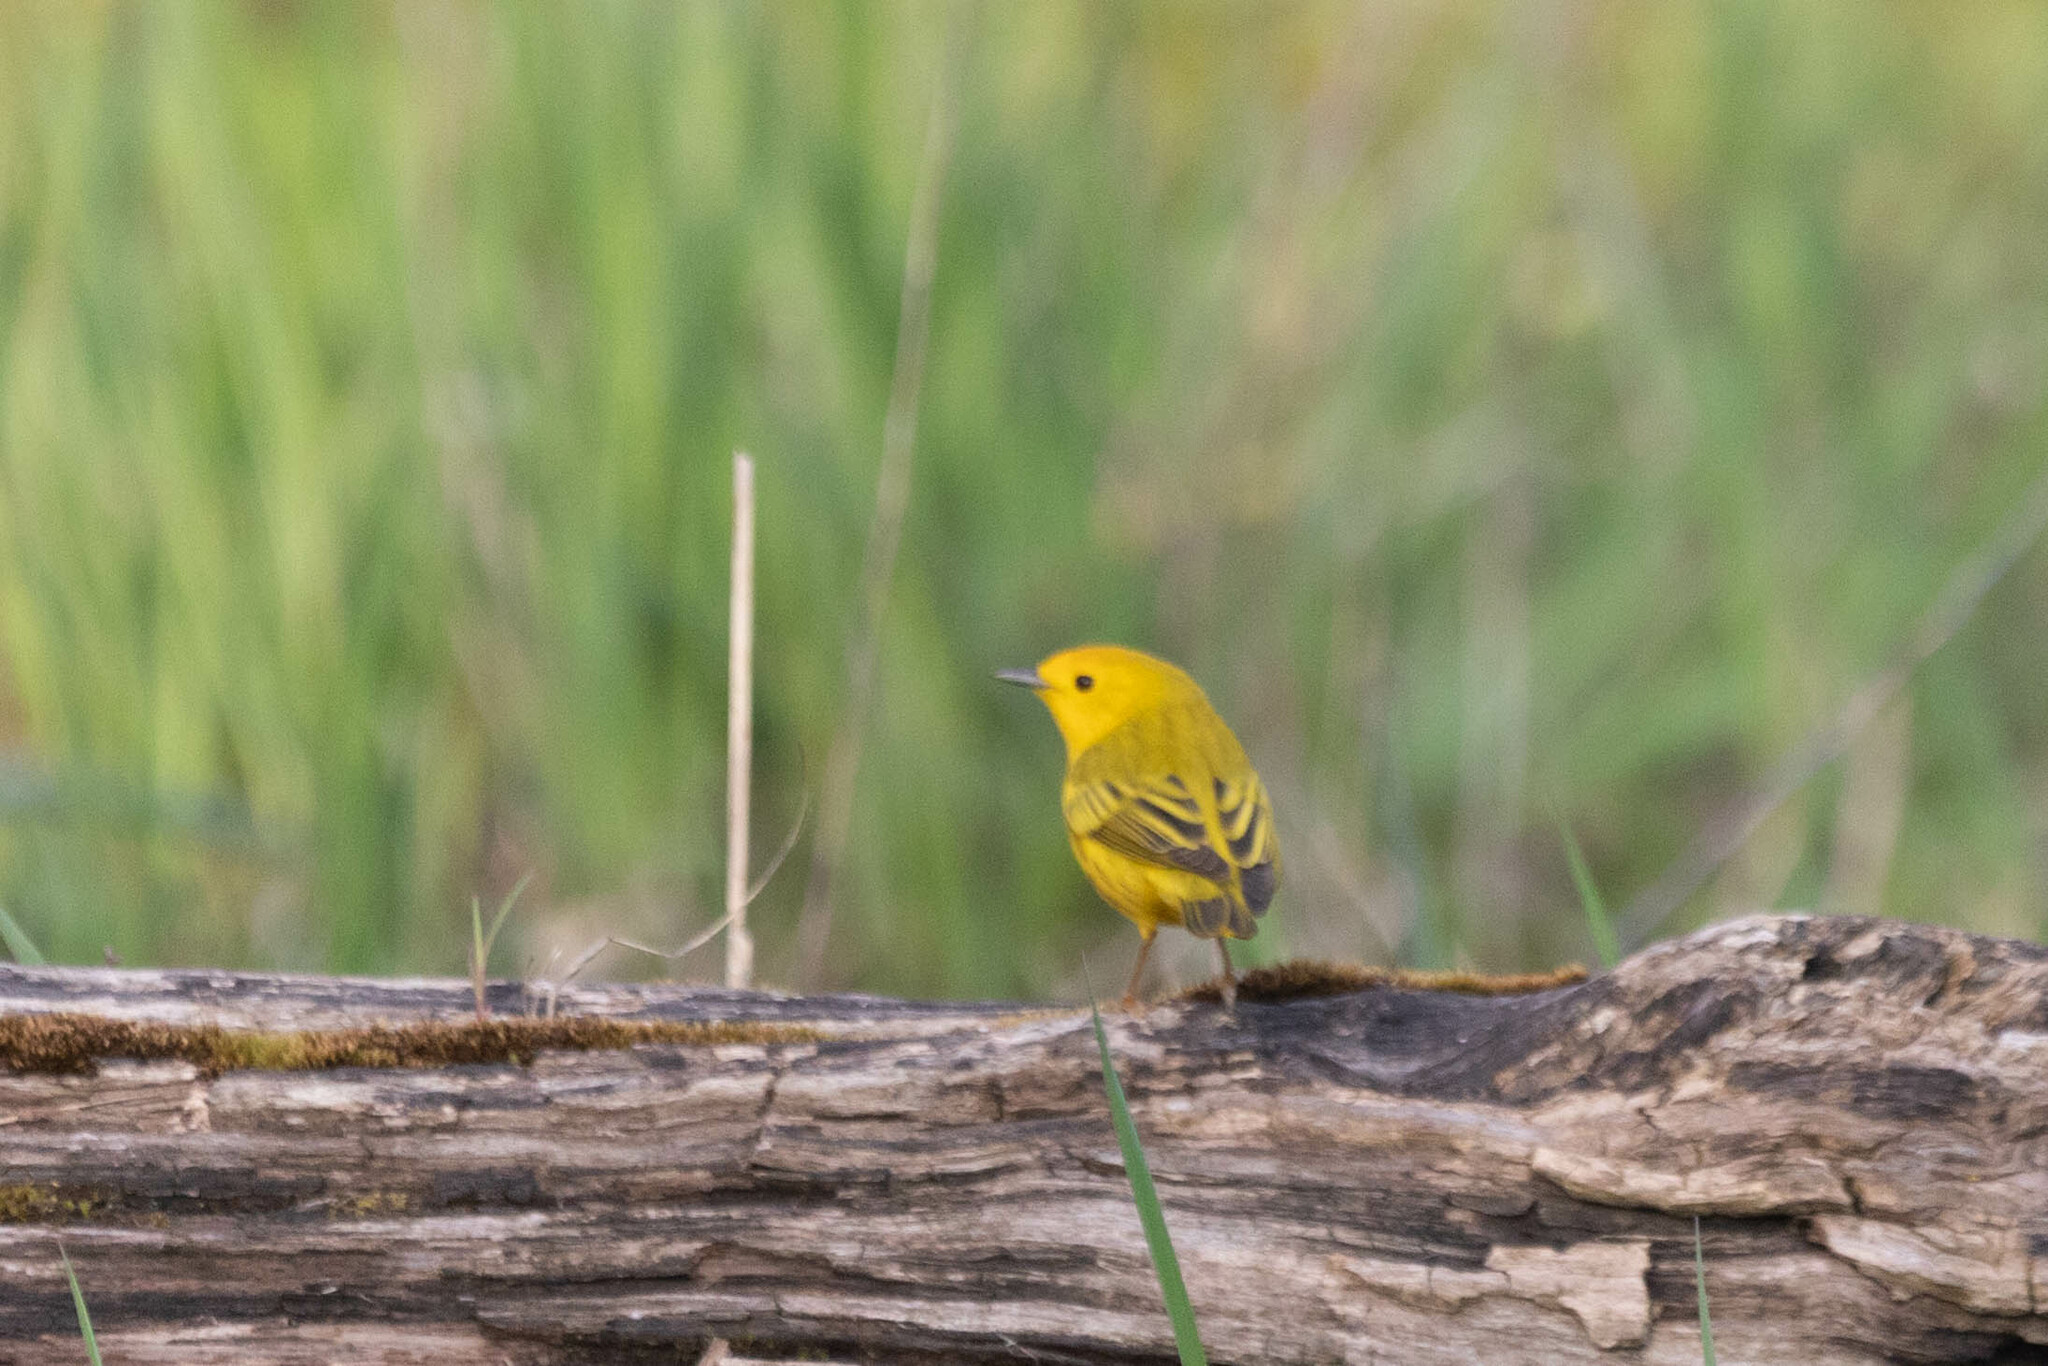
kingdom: Animalia
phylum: Chordata
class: Aves
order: Passeriformes
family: Parulidae
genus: Setophaga
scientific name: Setophaga petechia
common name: Yellow warbler
